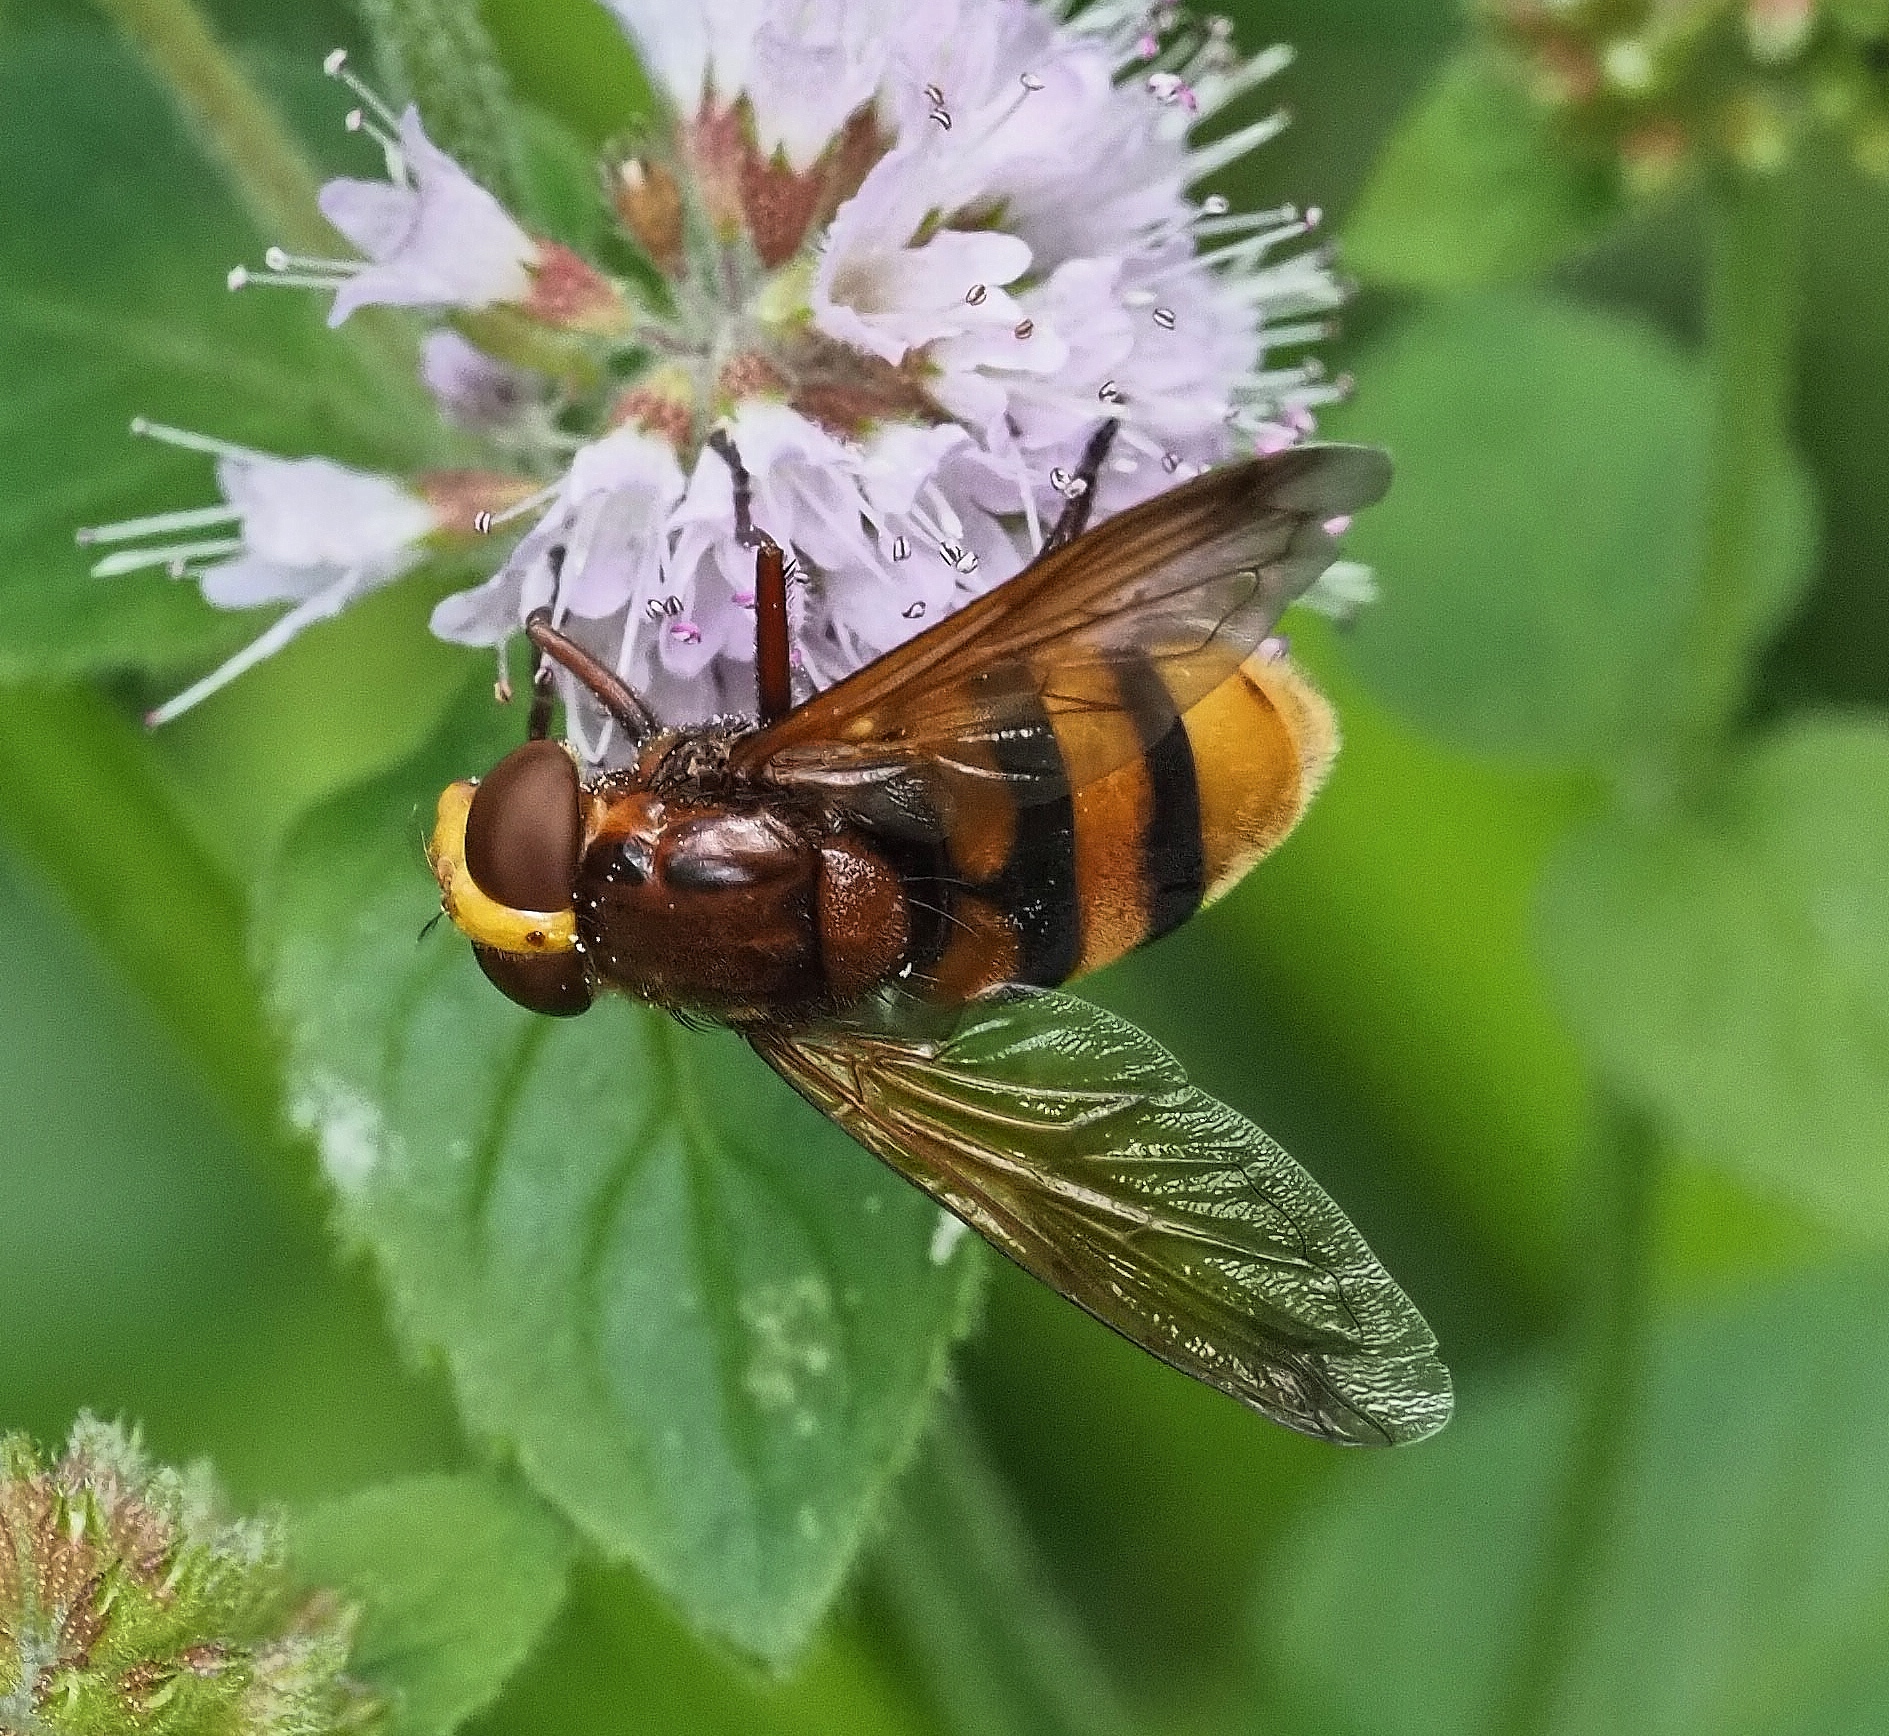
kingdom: Animalia
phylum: Arthropoda
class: Insecta
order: Diptera
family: Syrphidae
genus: Volucella
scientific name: Volucella zonaria
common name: Hornet hoverfly
